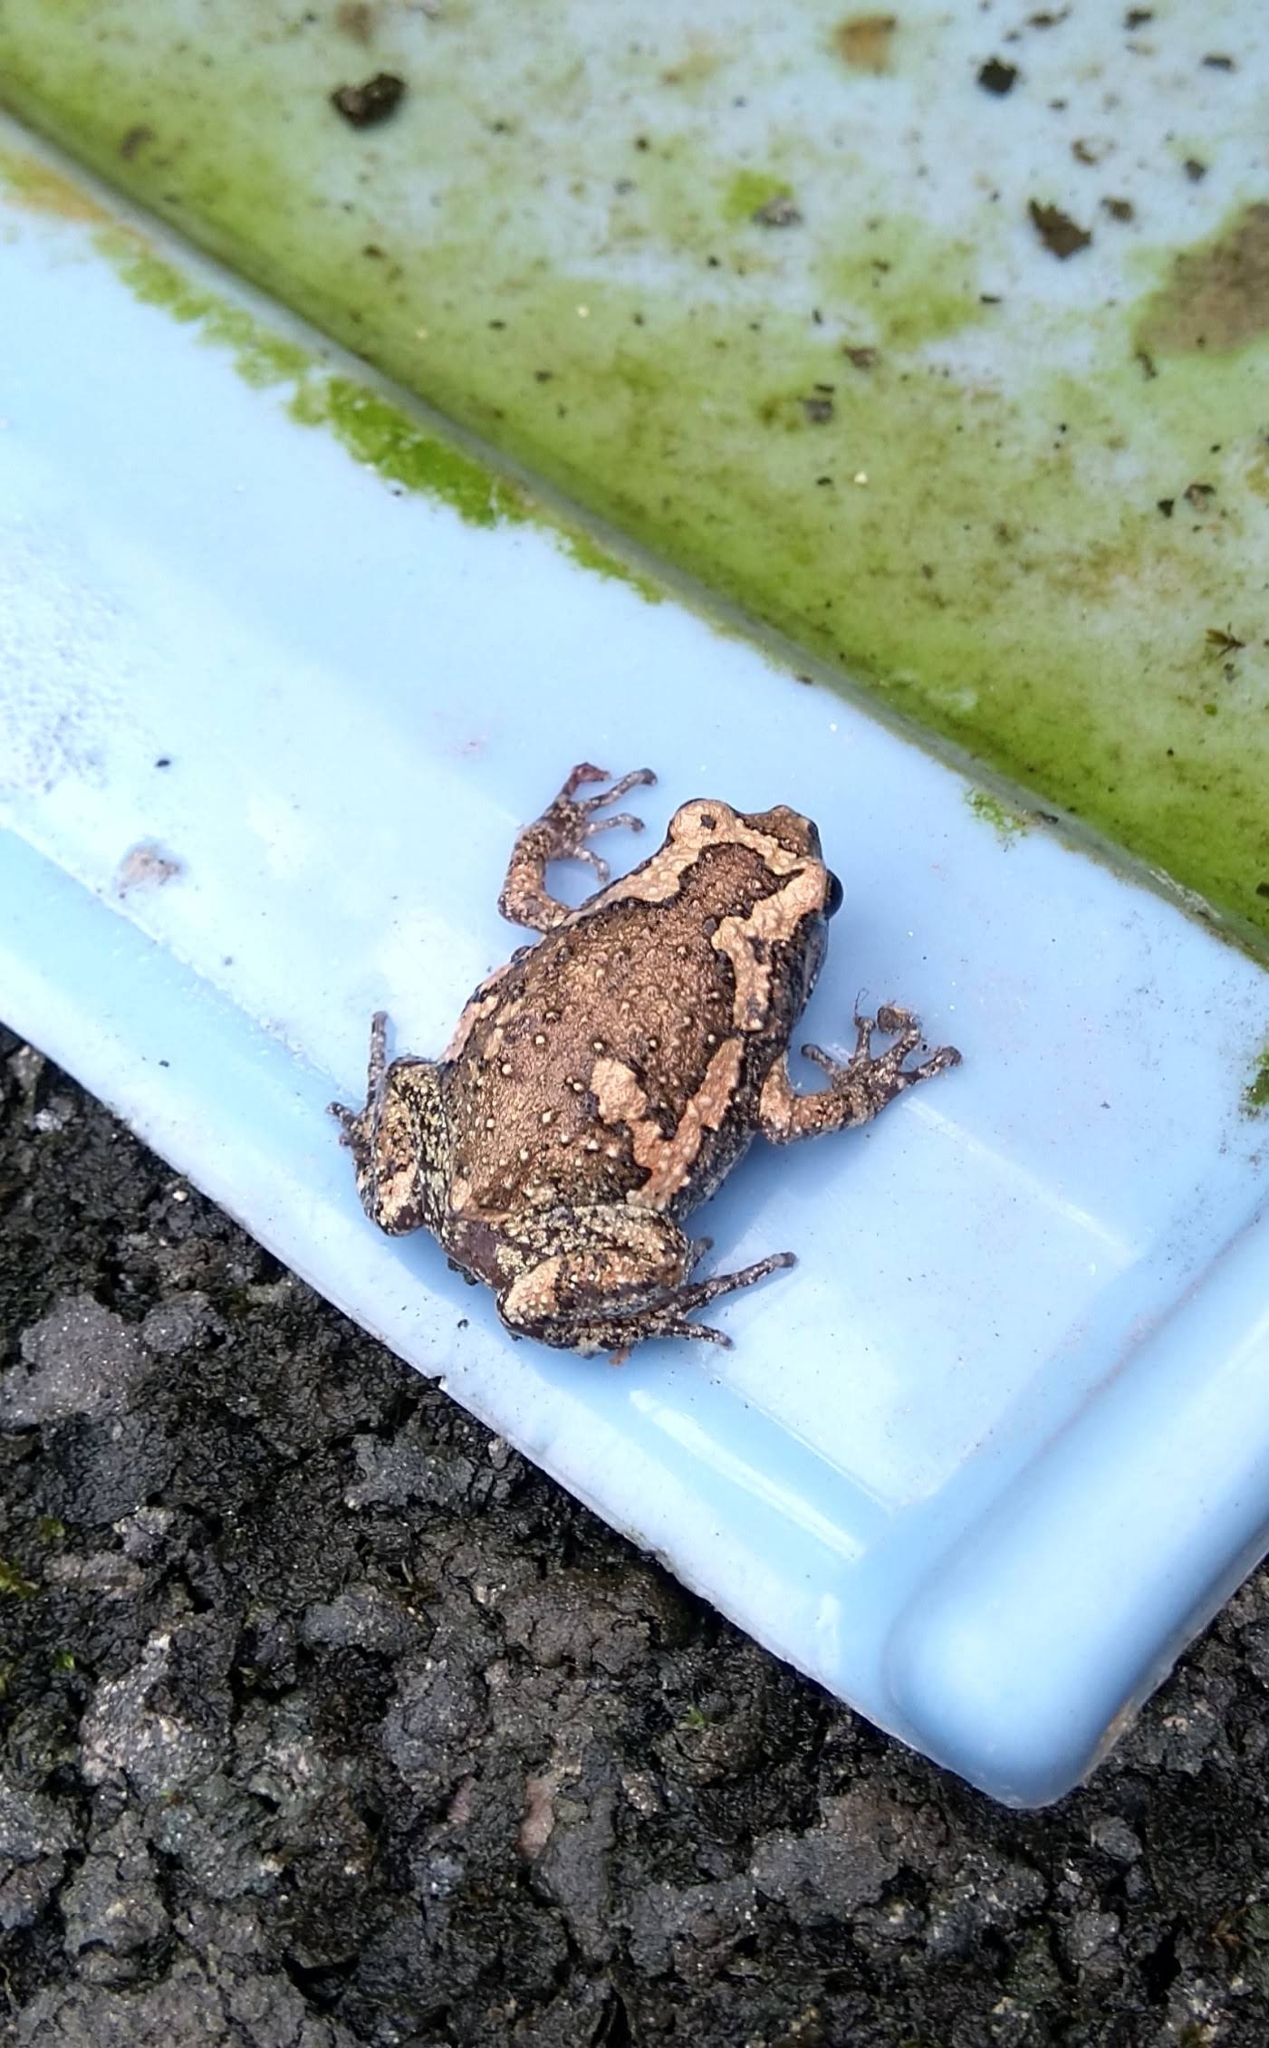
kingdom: Animalia
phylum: Chordata
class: Amphibia
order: Anura
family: Microhylidae
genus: Uperodon
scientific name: Uperodon taprobanicus
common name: Ceylon kaloula
